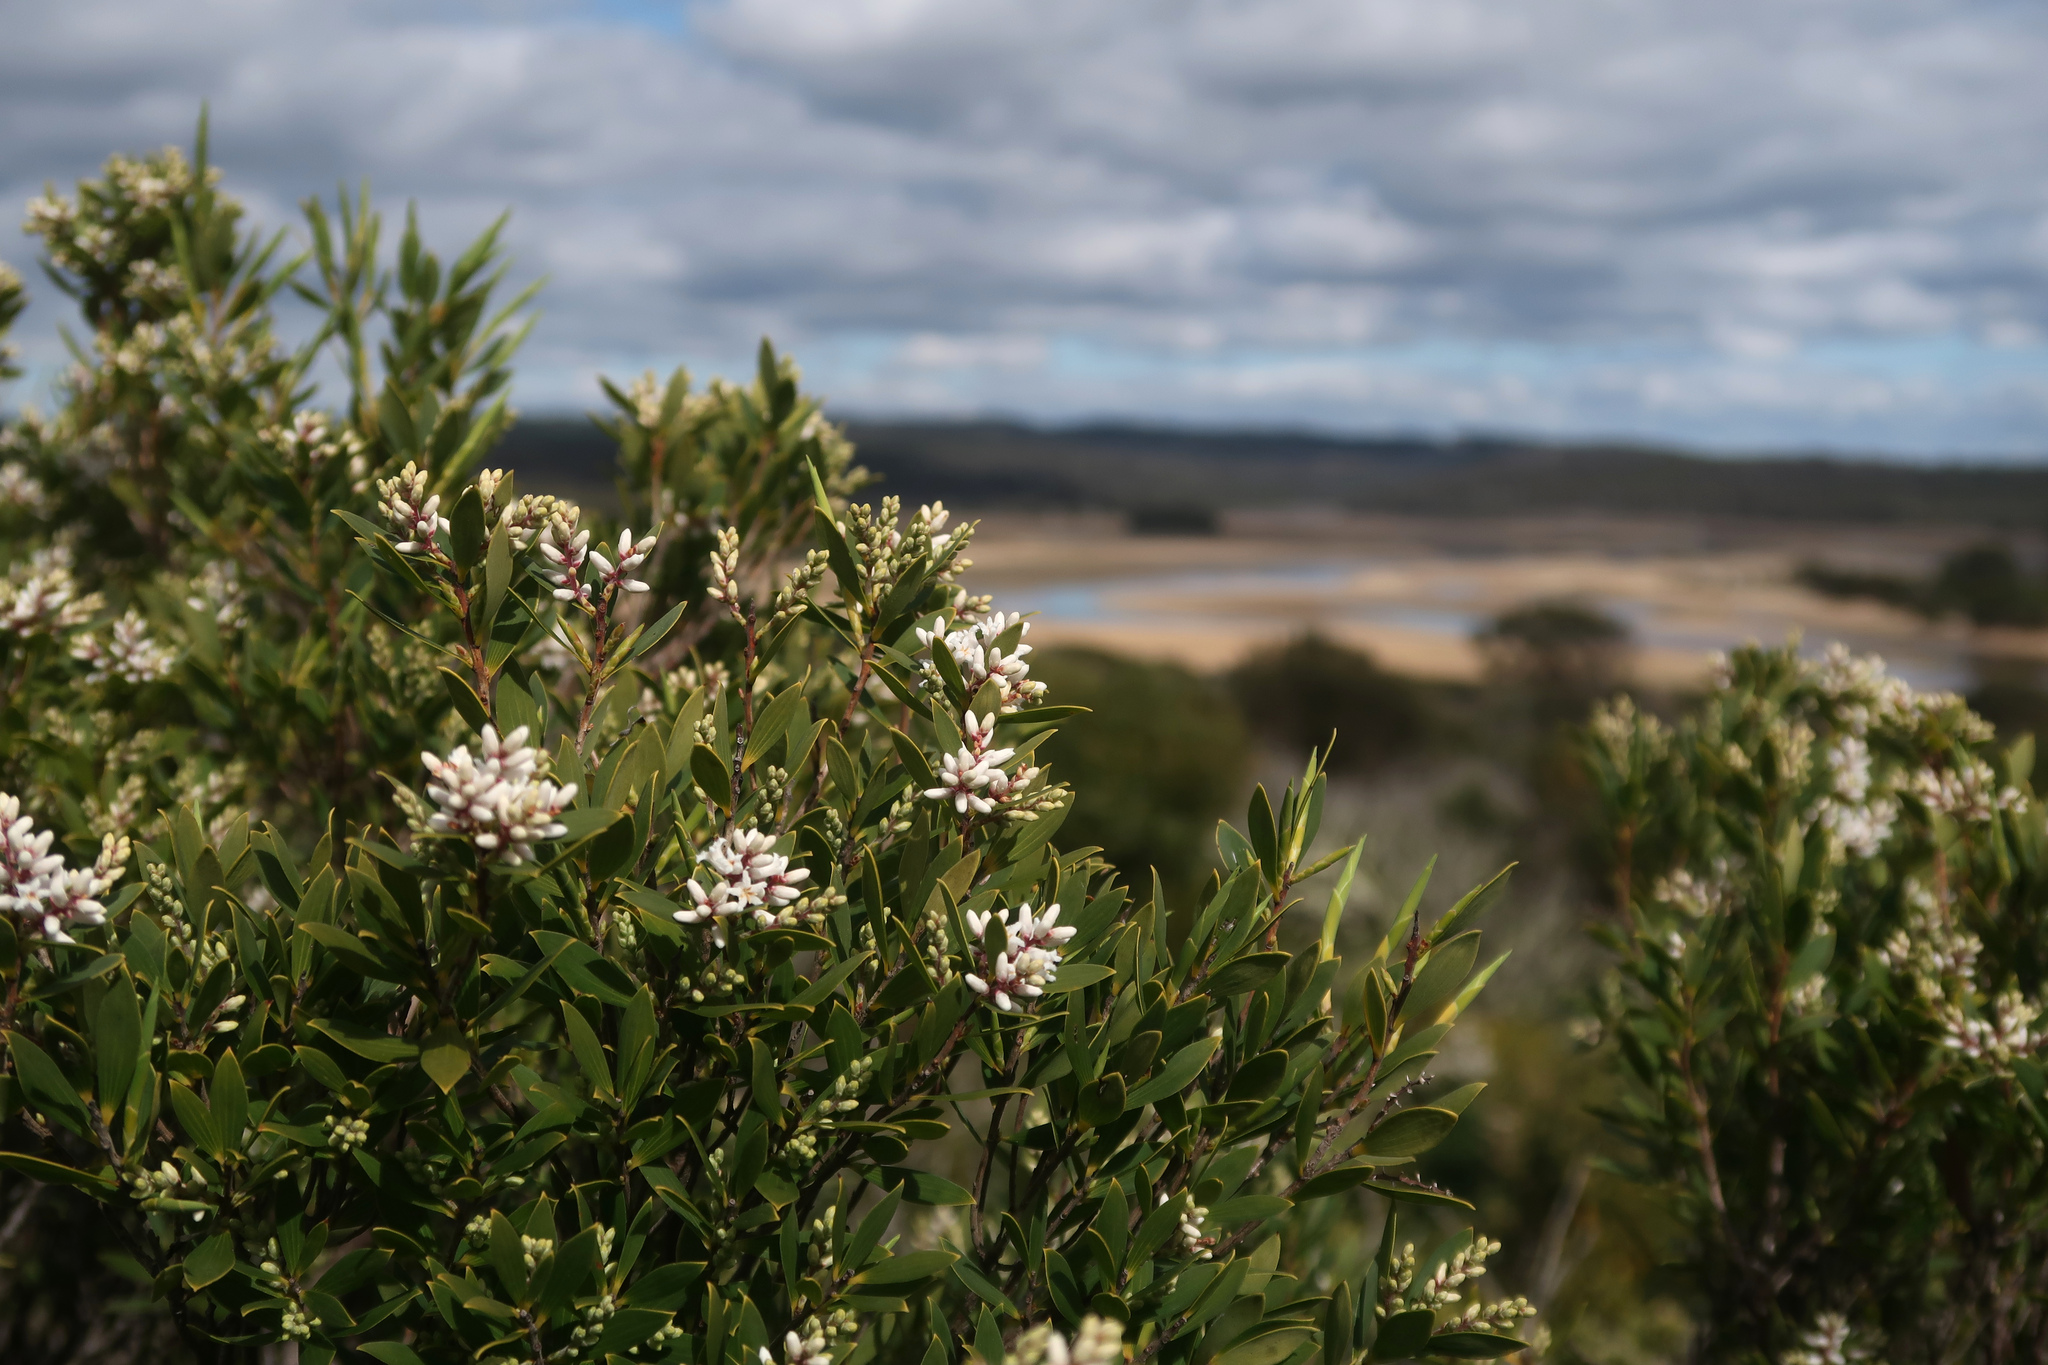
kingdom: Plantae
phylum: Tracheophyta
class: Magnoliopsida
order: Ericales
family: Ericaceae
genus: Leptecophylla
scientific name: Leptecophylla parvifolia
